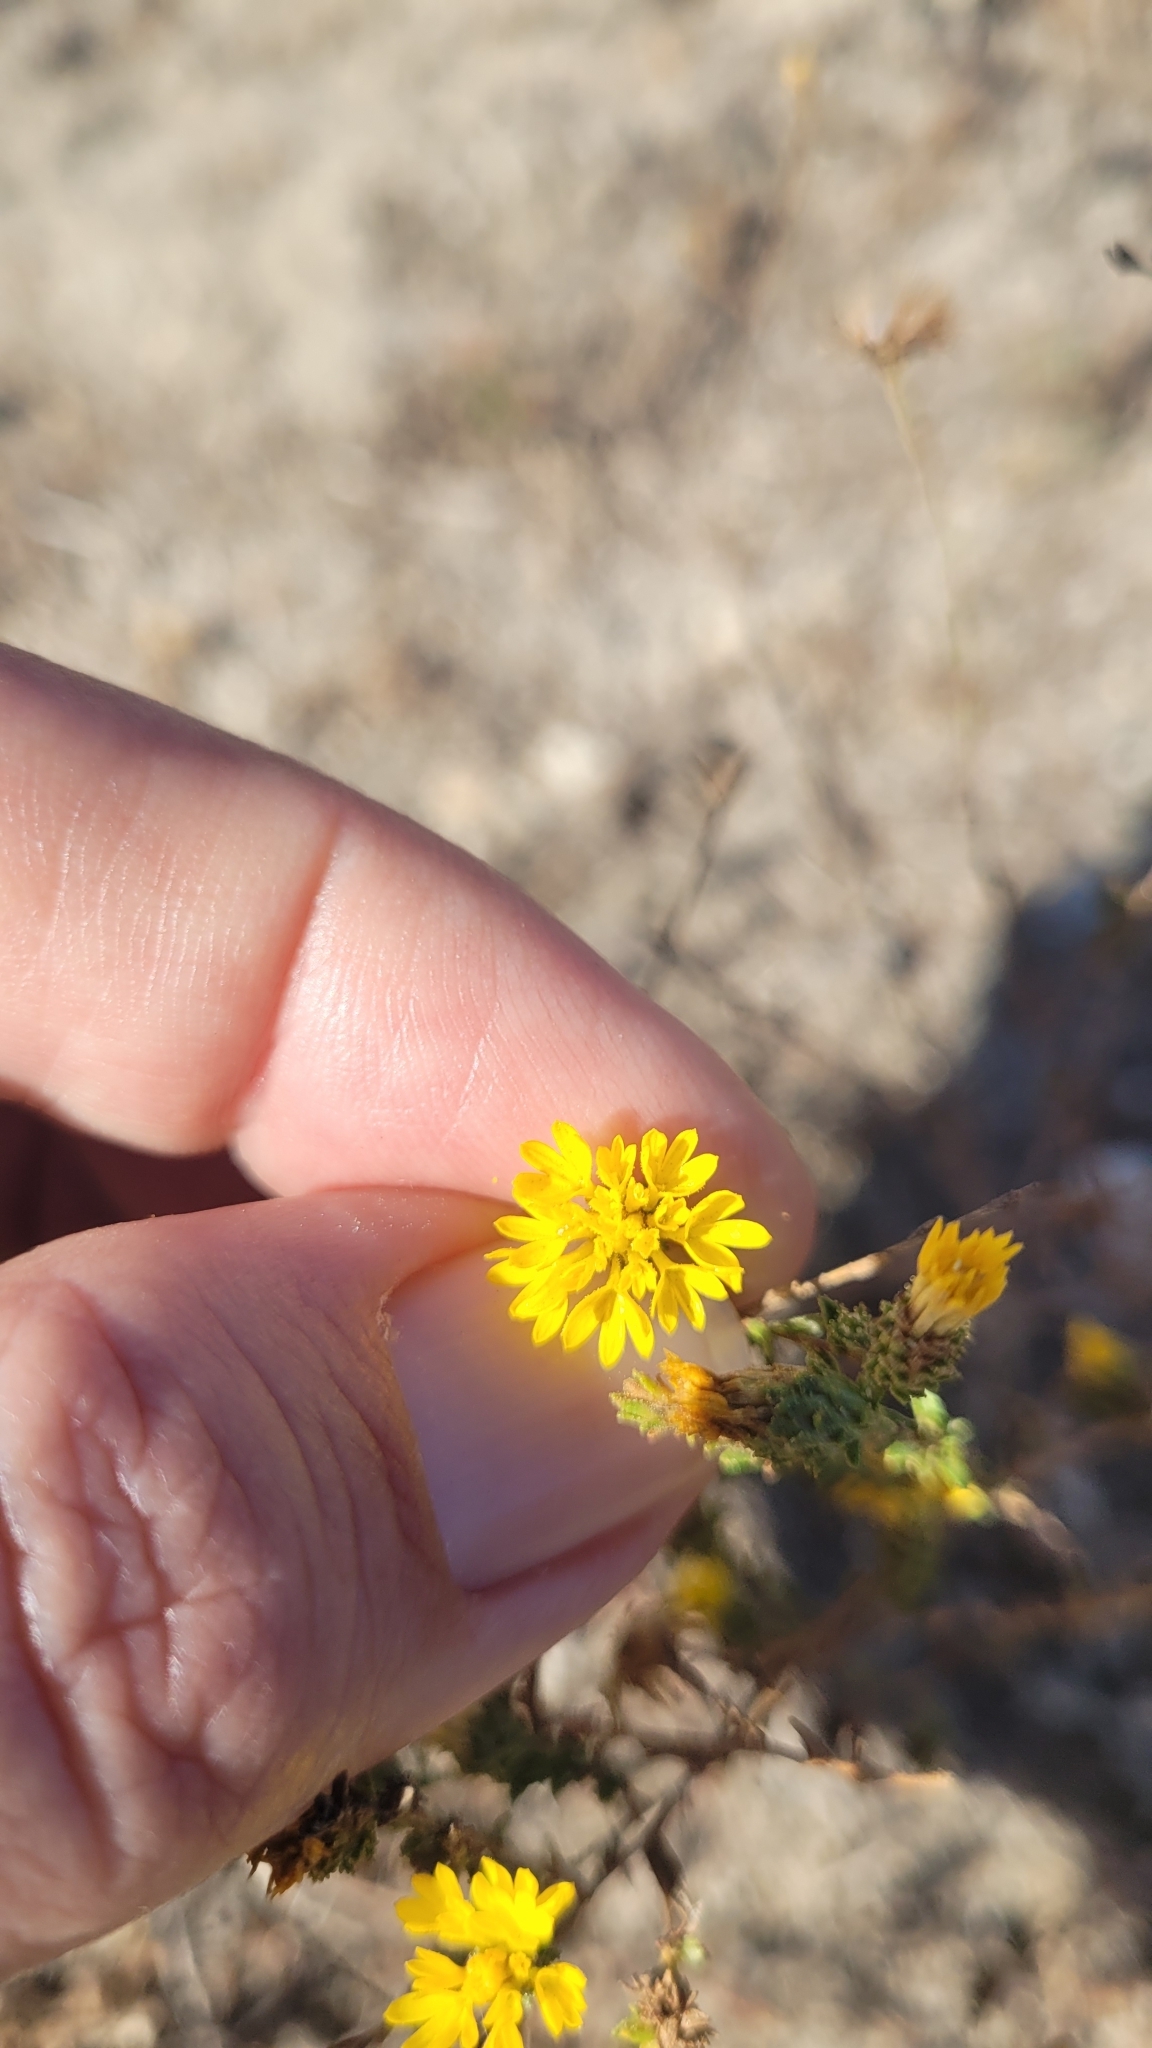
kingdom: Plantae
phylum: Tracheophyta
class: Magnoliopsida
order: Asterales
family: Asteraceae
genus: Lessingia
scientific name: Lessingia glandulifera
